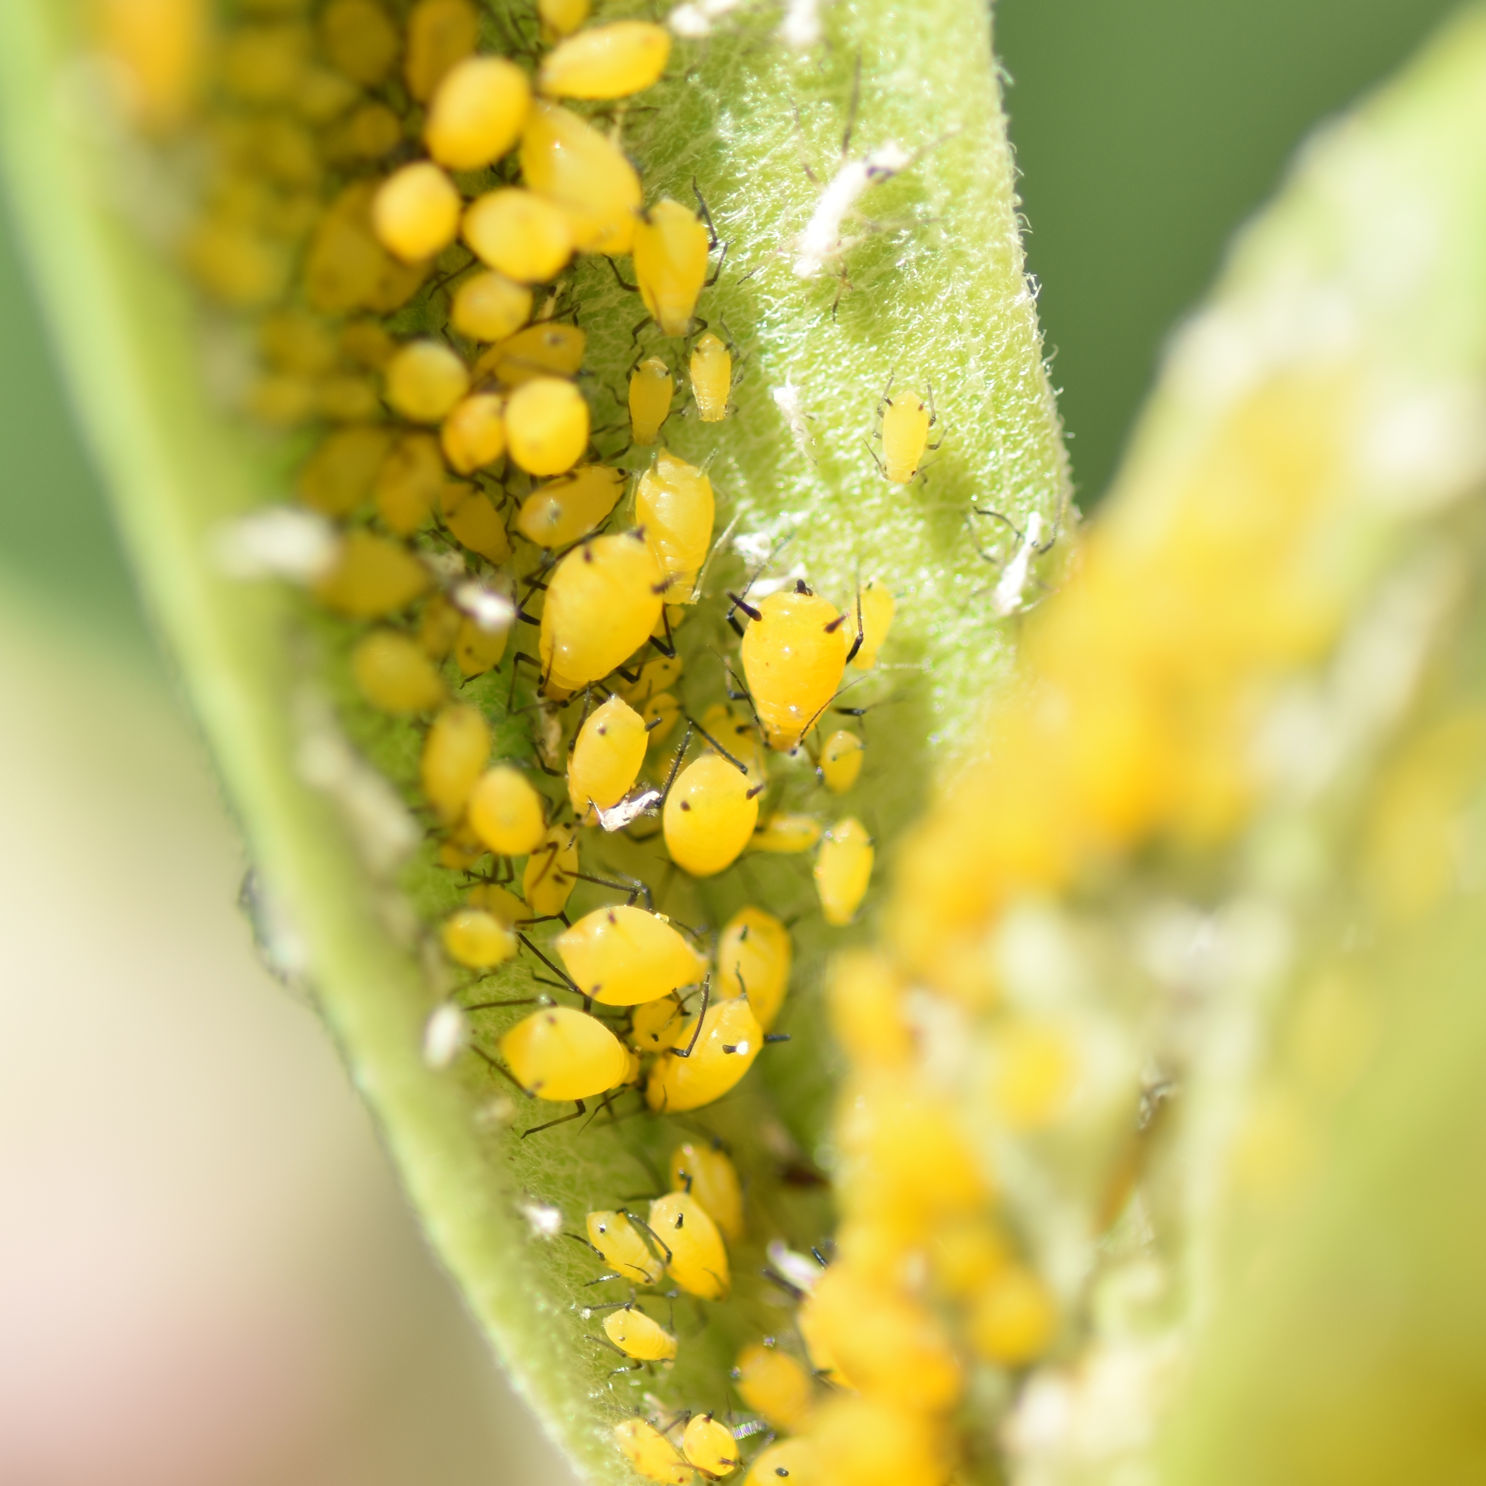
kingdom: Animalia
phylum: Arthropoda
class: Insecta
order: Hemiptera
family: Aphididae
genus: Aphis
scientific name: Aphis nerii
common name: Oleander aphid
